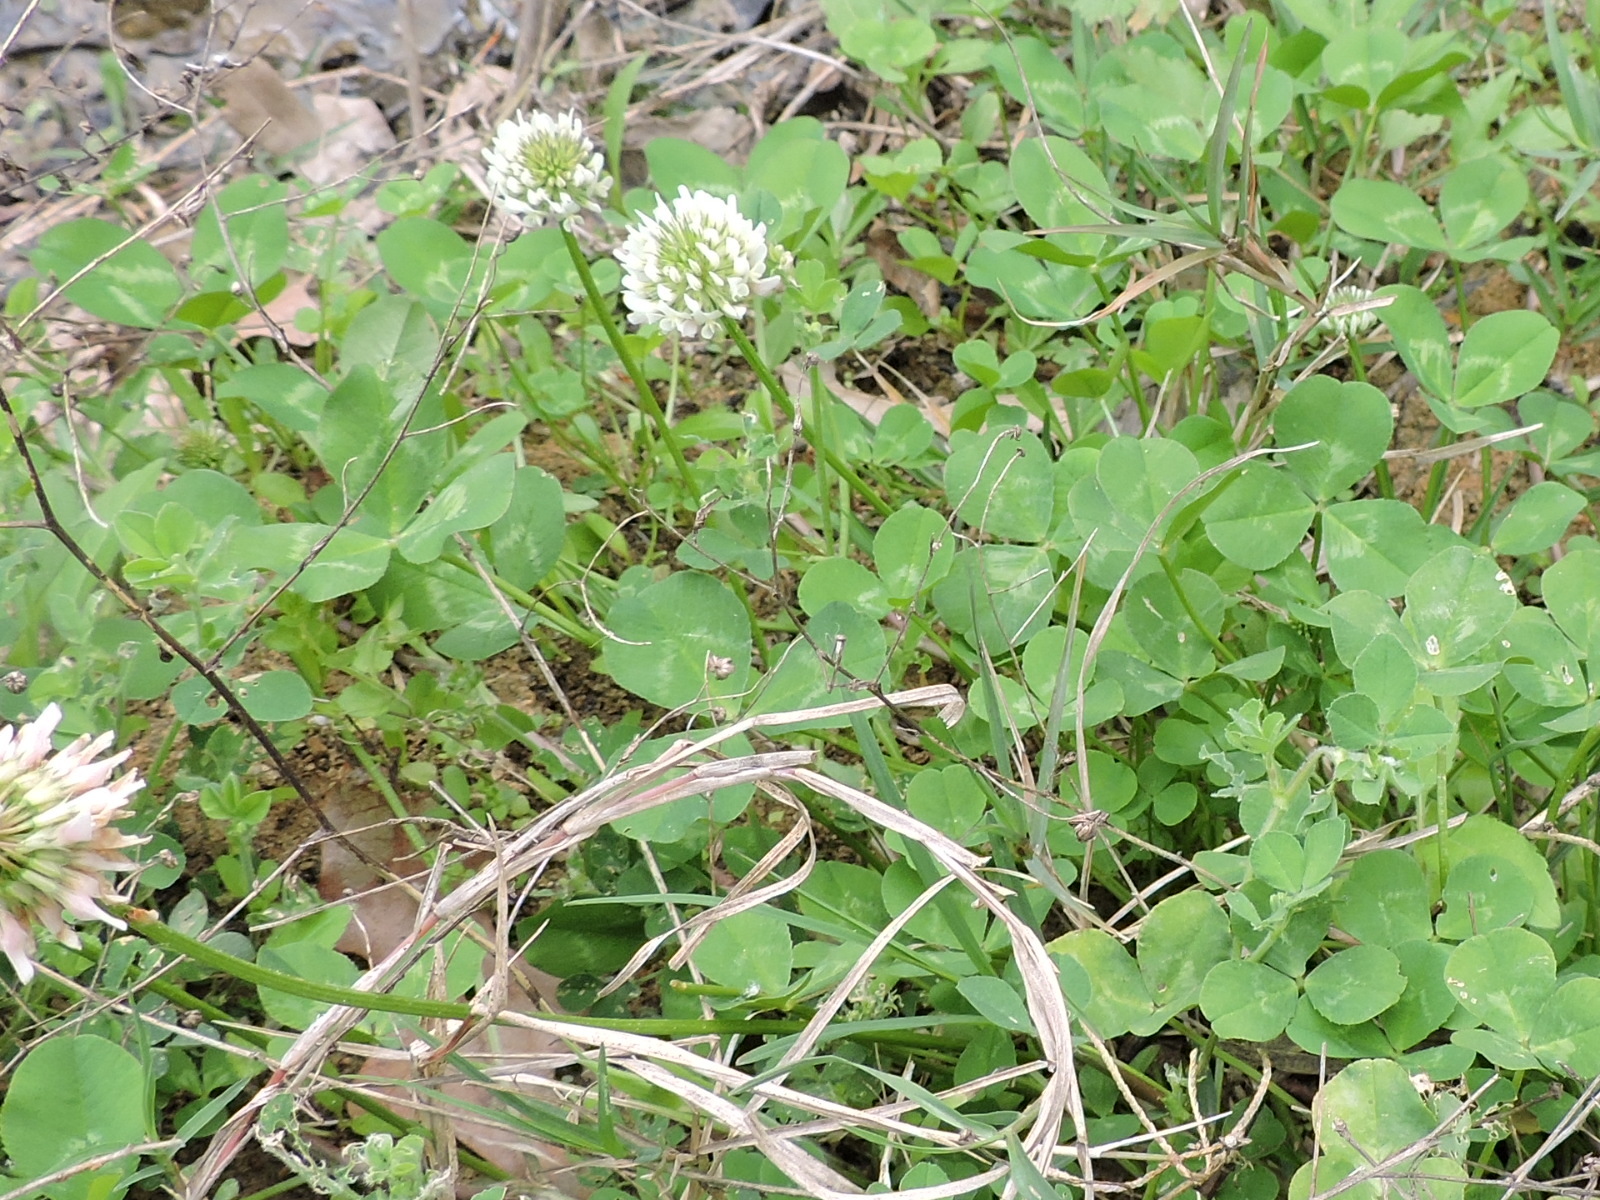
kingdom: Plantae
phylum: Tracheophyta
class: Magnoliopsida
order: Fabales
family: Fabaceae
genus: Trifolium
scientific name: Trifolium repens
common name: White clover
